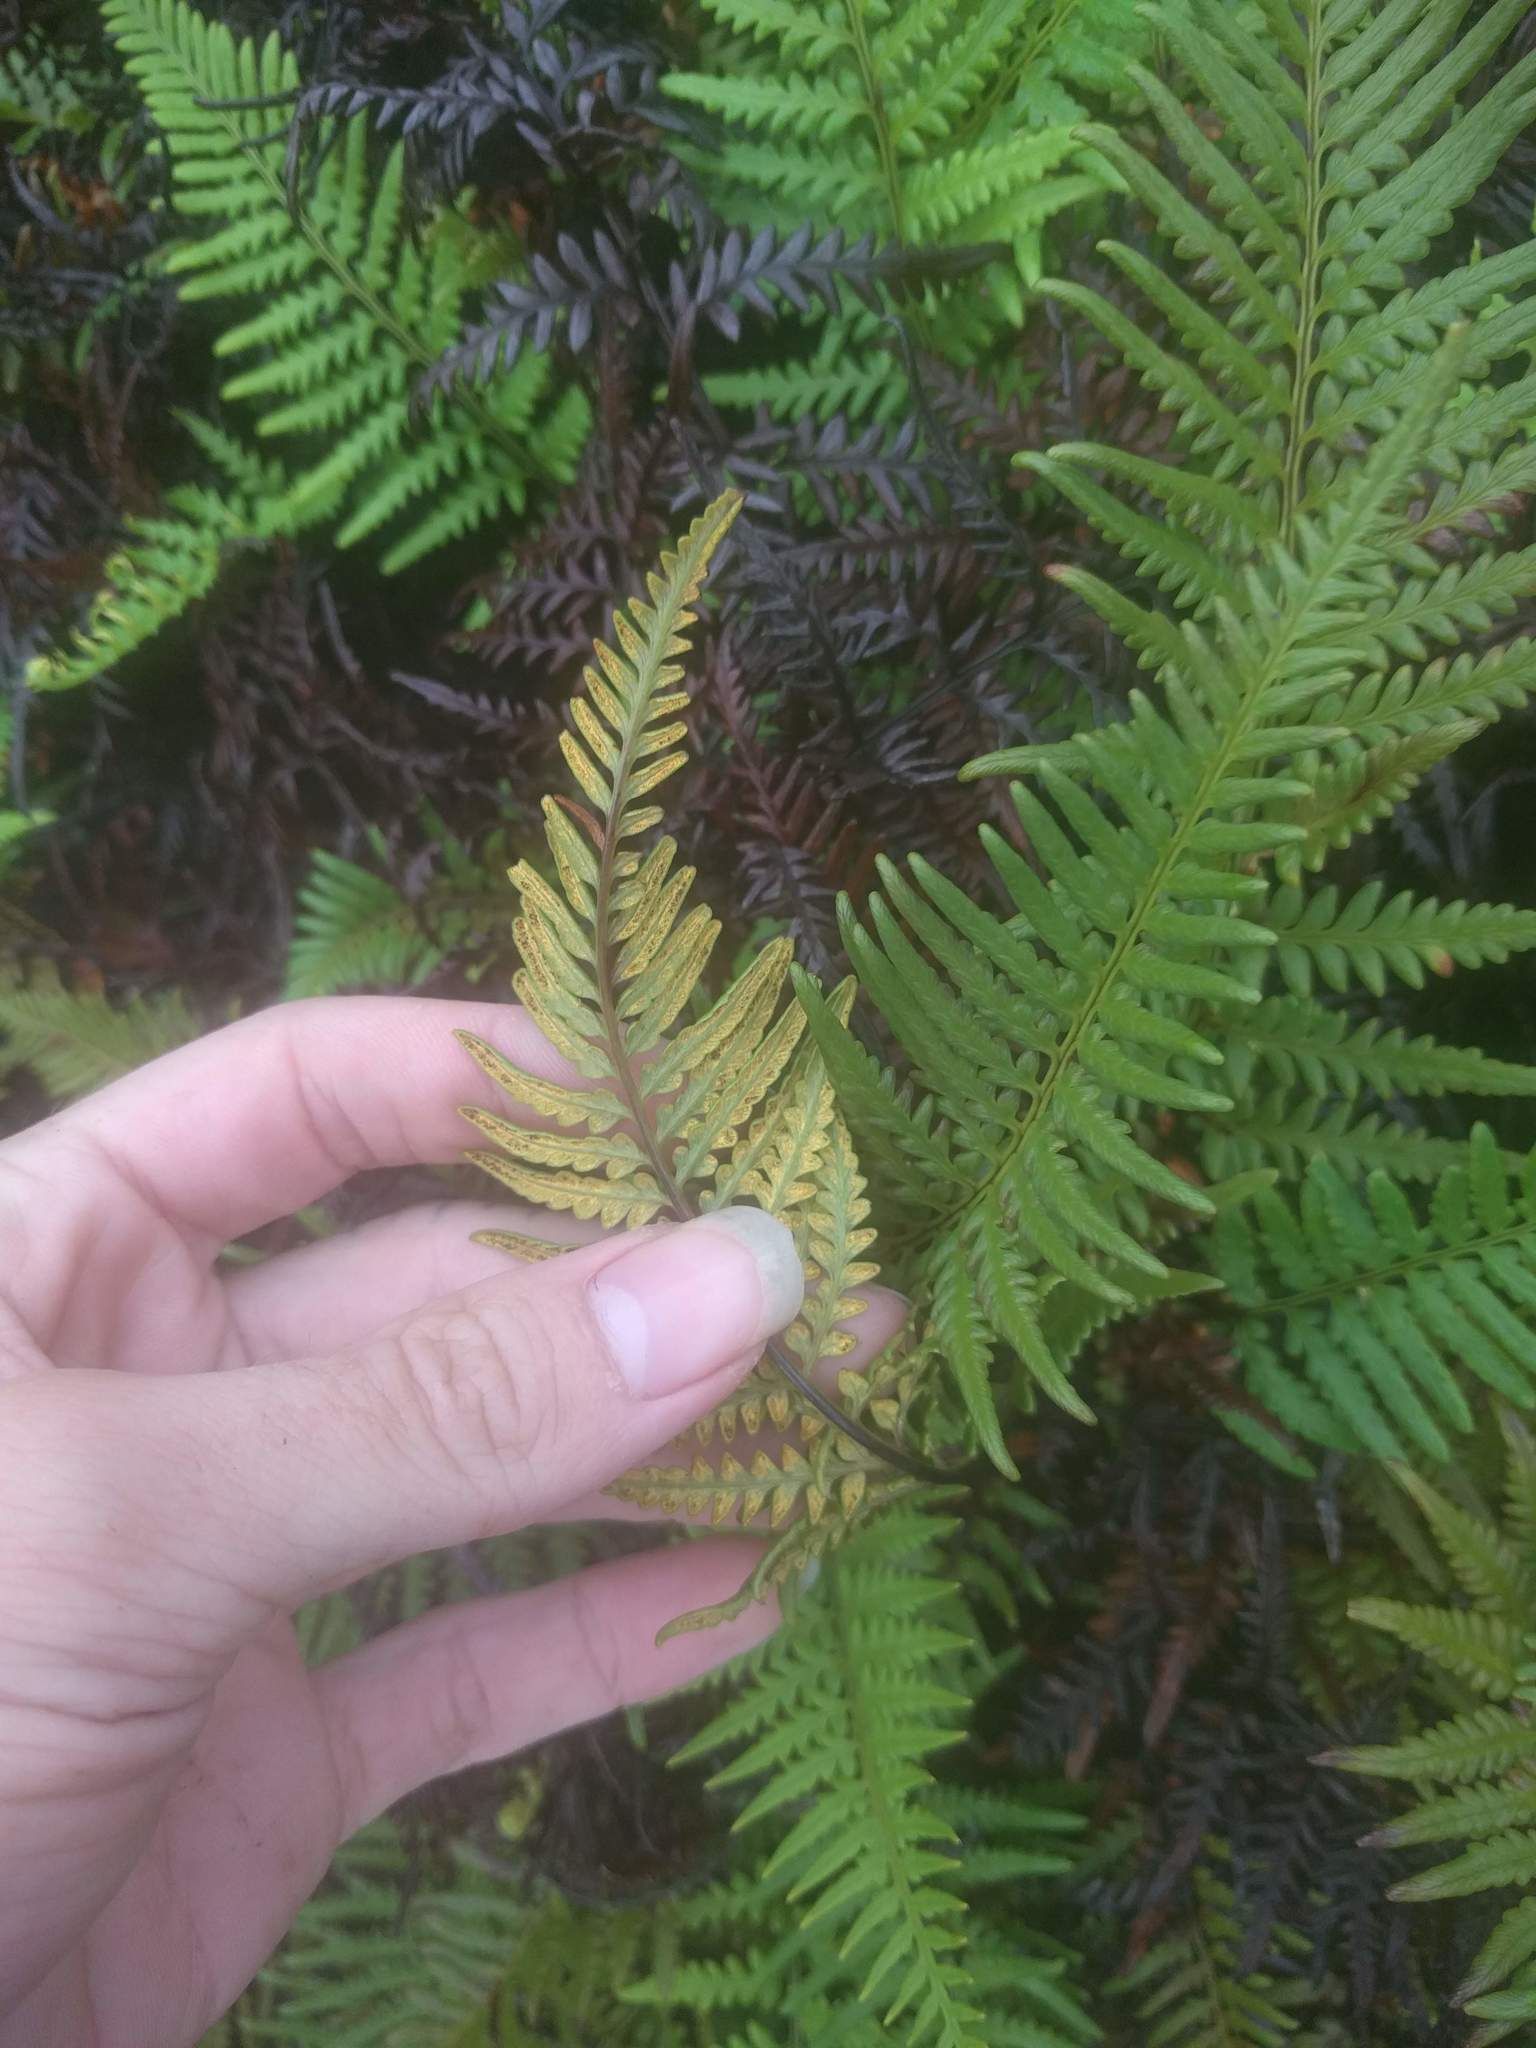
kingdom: Plantae
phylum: Tracheophyta
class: Polypodiopsida
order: Polypodiales
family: Pteridaceae
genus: Pityrogramma
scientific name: Pityrogramma austroamericana
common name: Leatherleaf goldback fern
